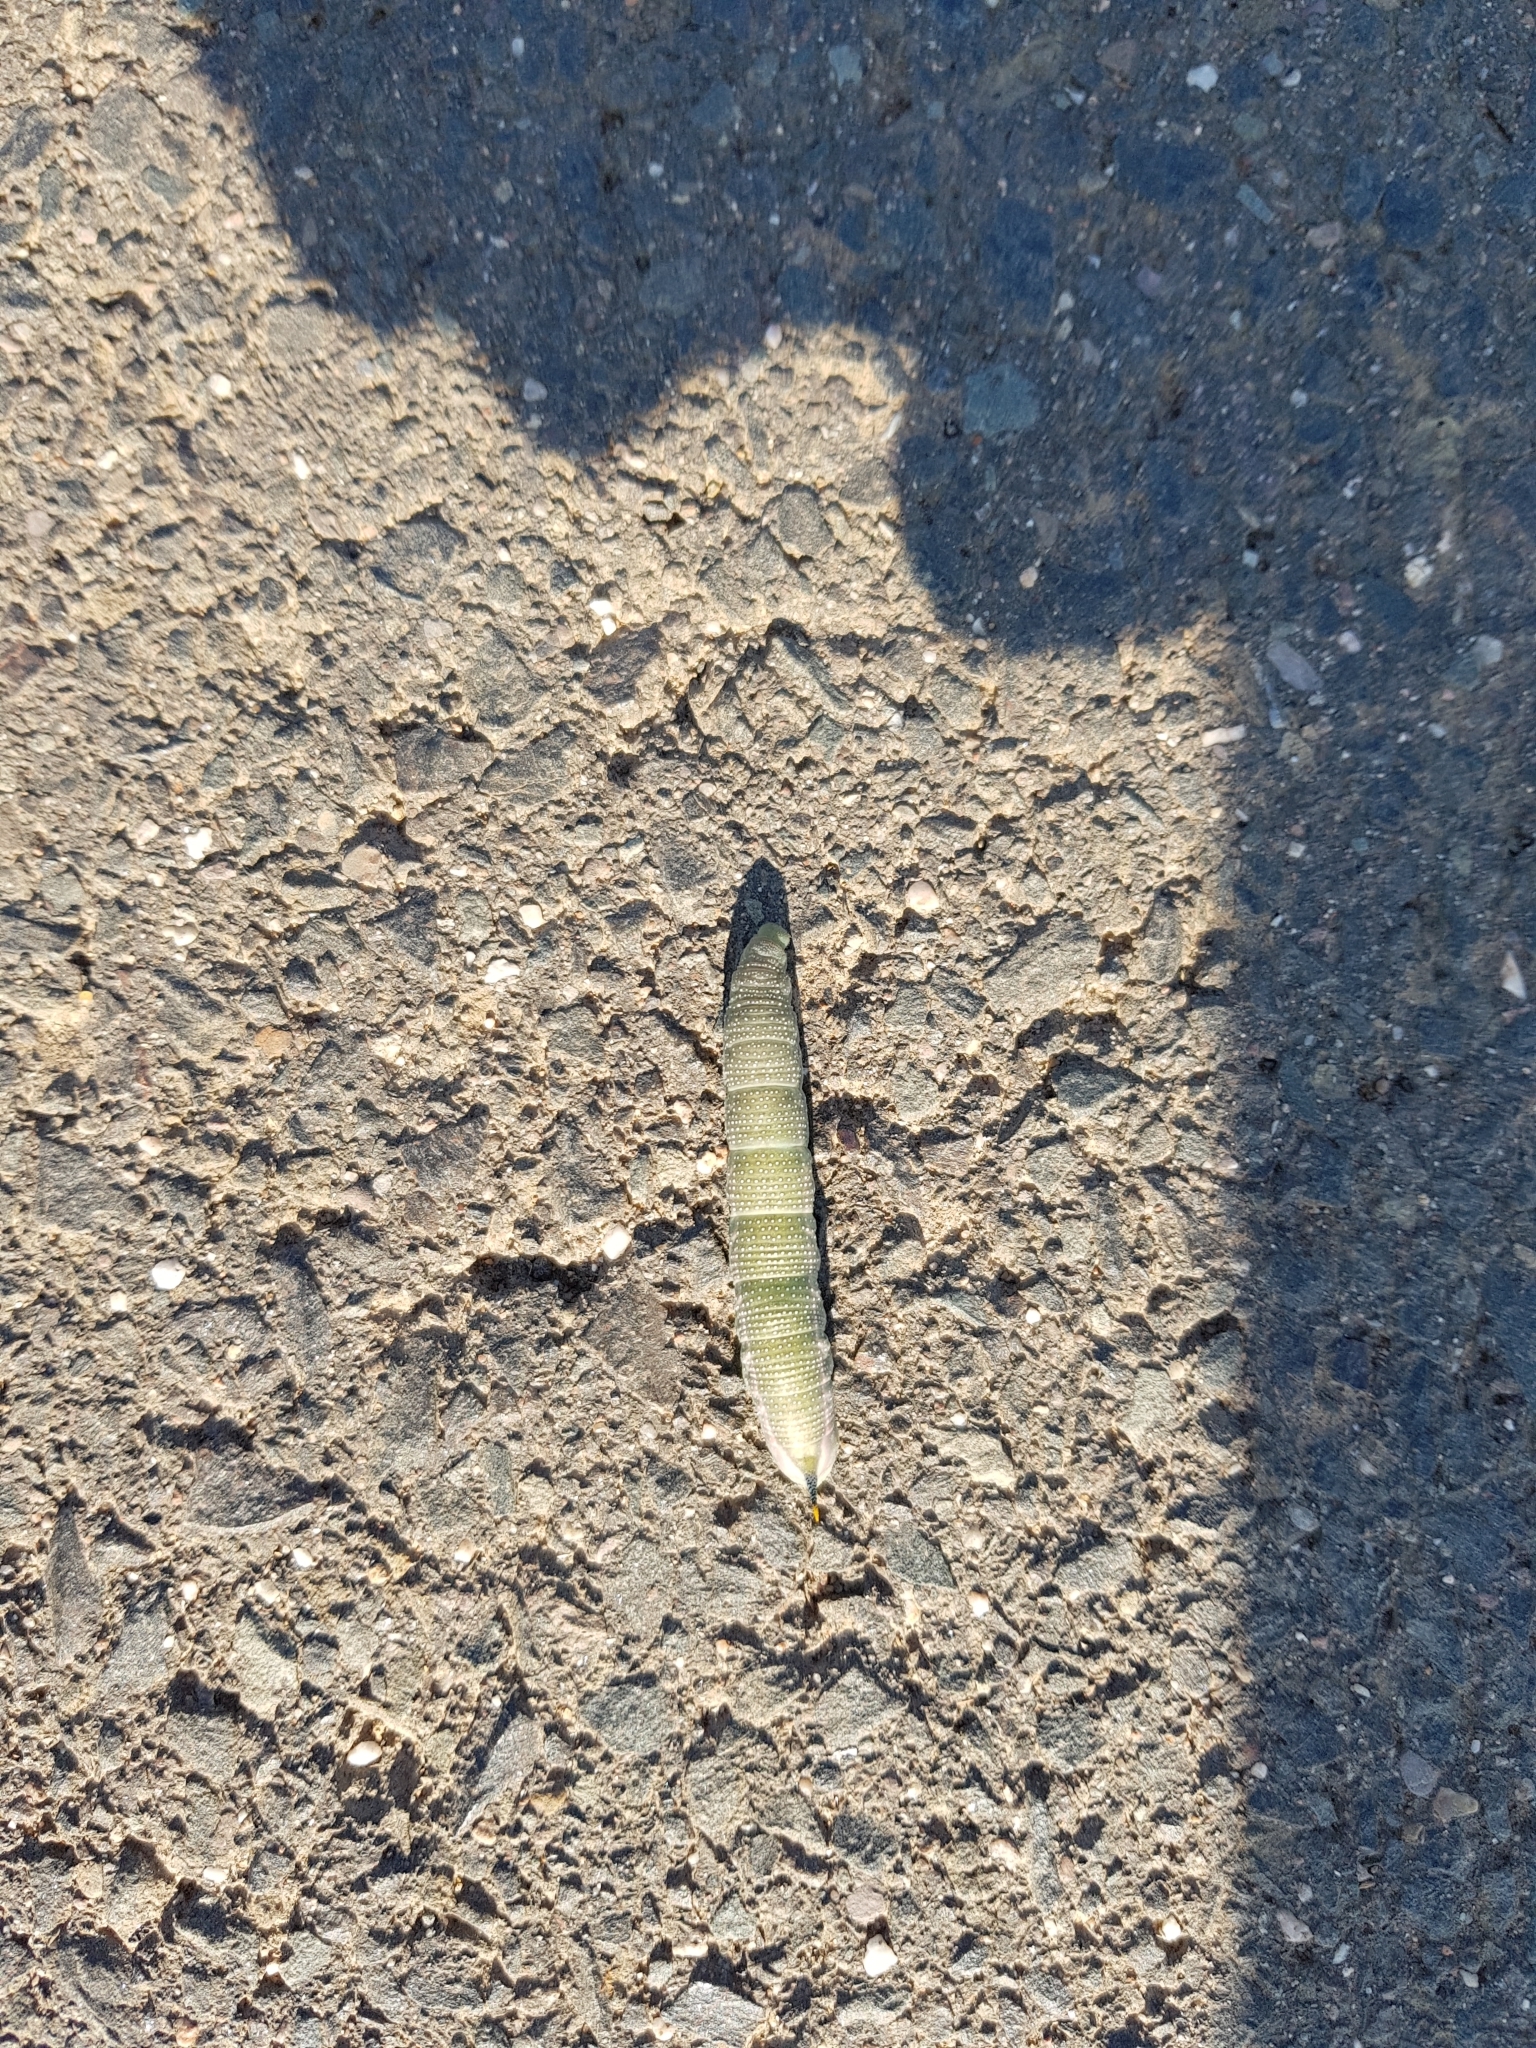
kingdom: Animalia
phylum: Arthropoda
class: Insecta
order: Lepidoptera
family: Sphingidae
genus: Macroglossum
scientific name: Macroglossum stellatarum
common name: Humming-bird hawk-moth
